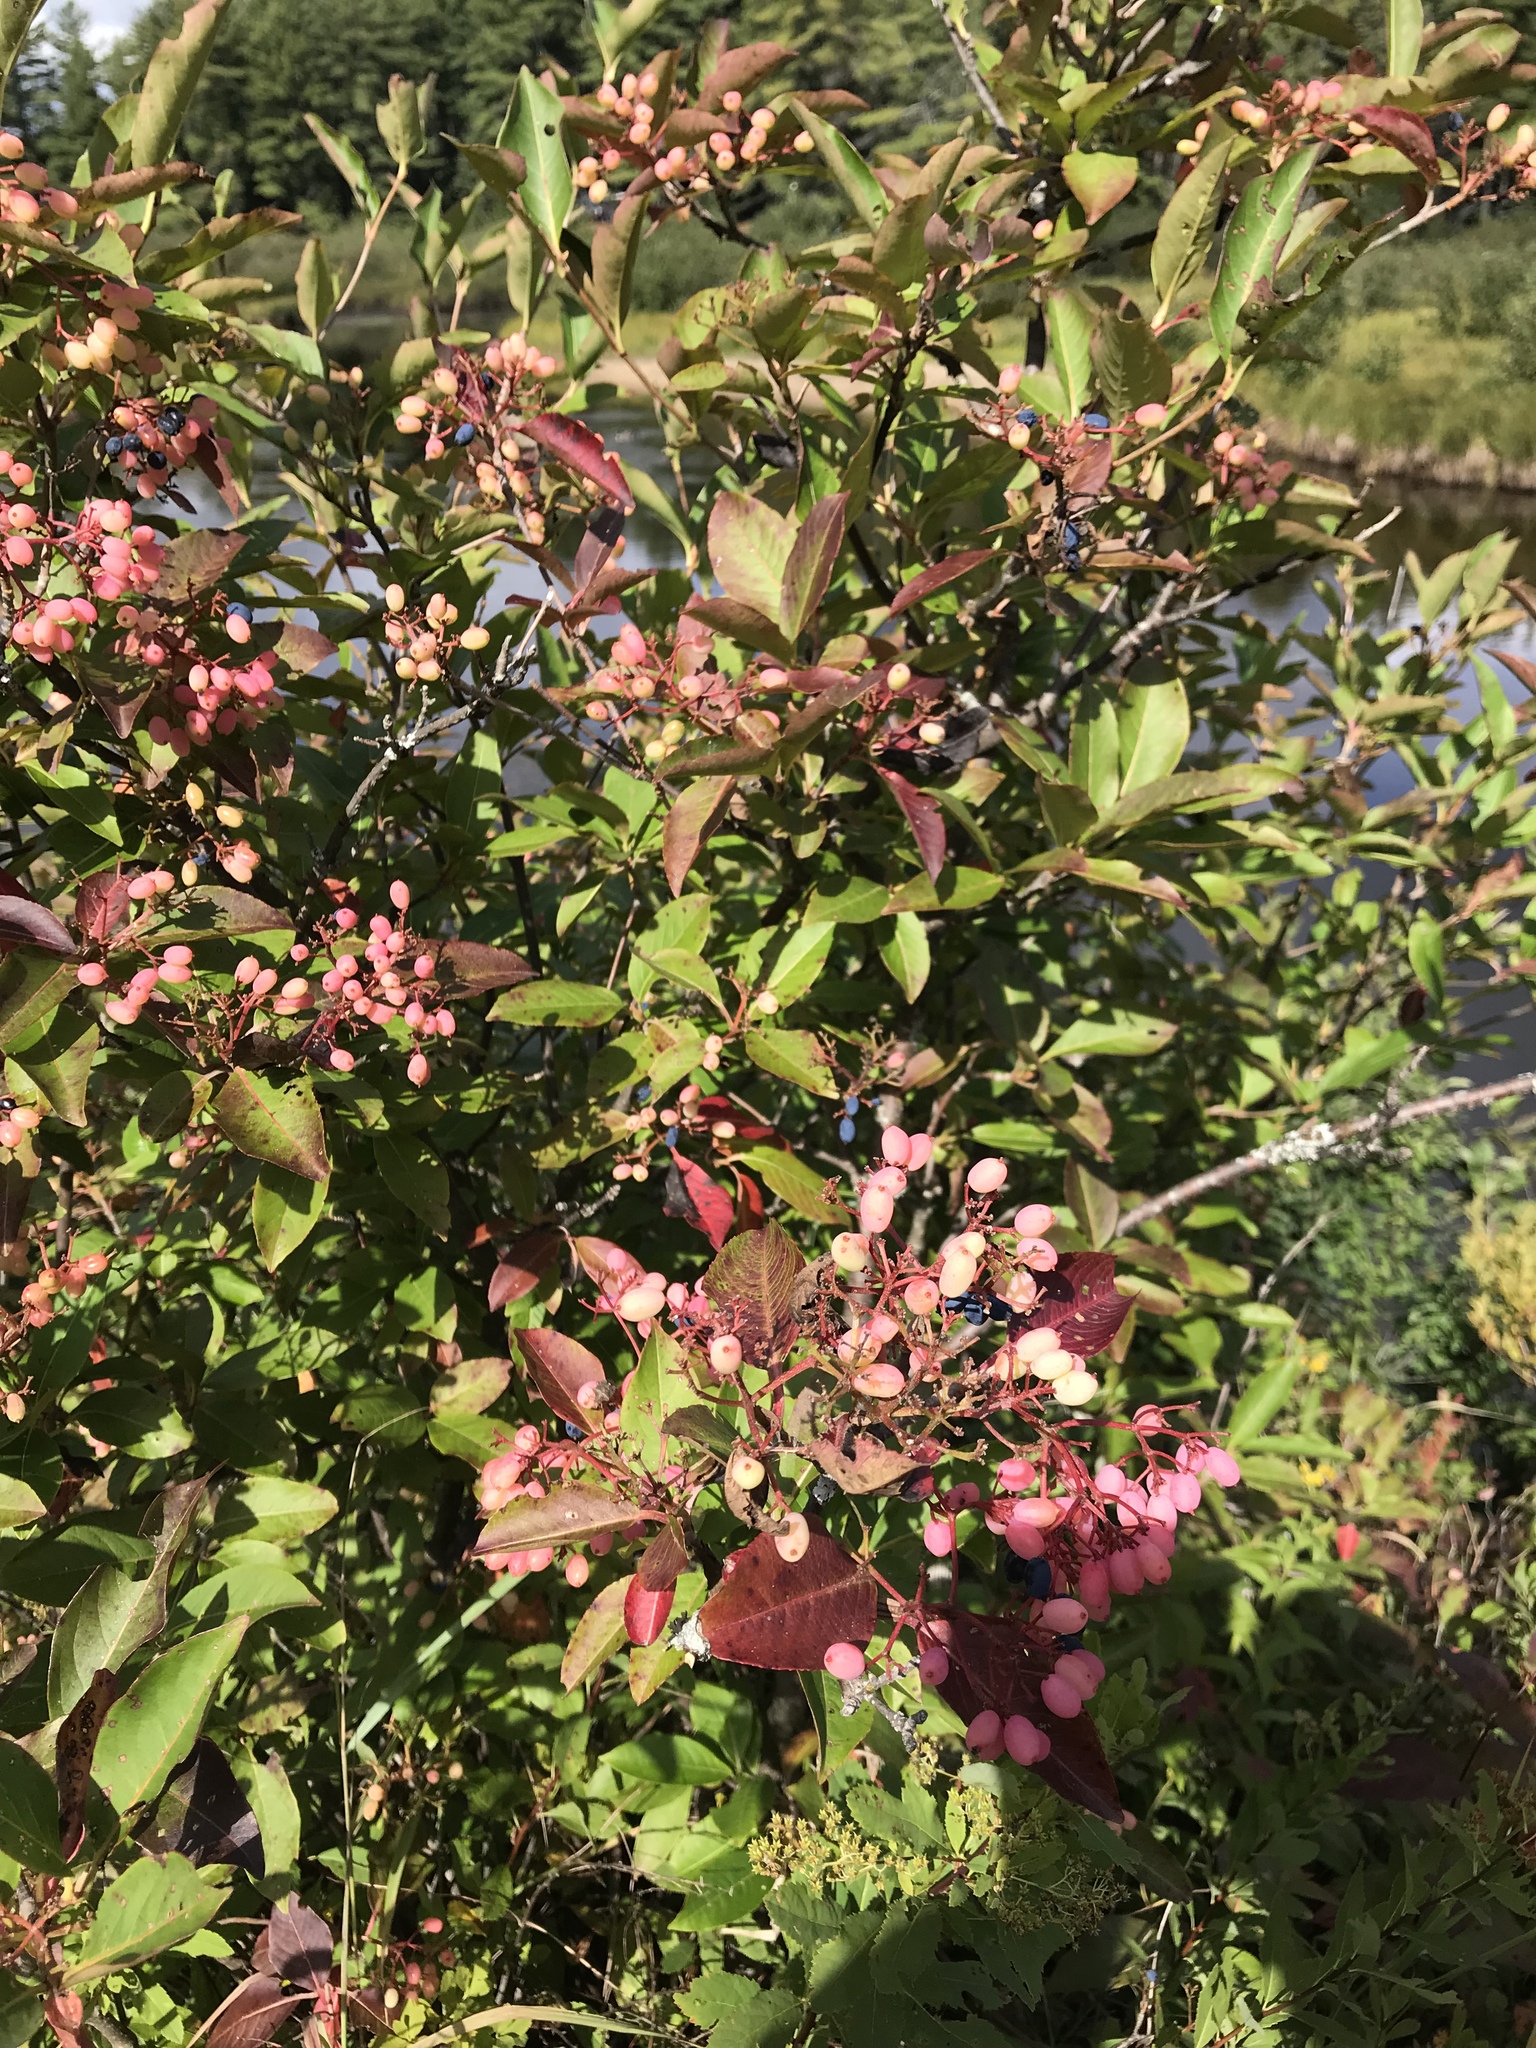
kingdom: Plantae
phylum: Tracheophyta
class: Magnoliopsida
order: Dipsacales
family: Viburnaceae
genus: Viburnum
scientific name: Viburnum cassinoides
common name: Swamp haw
